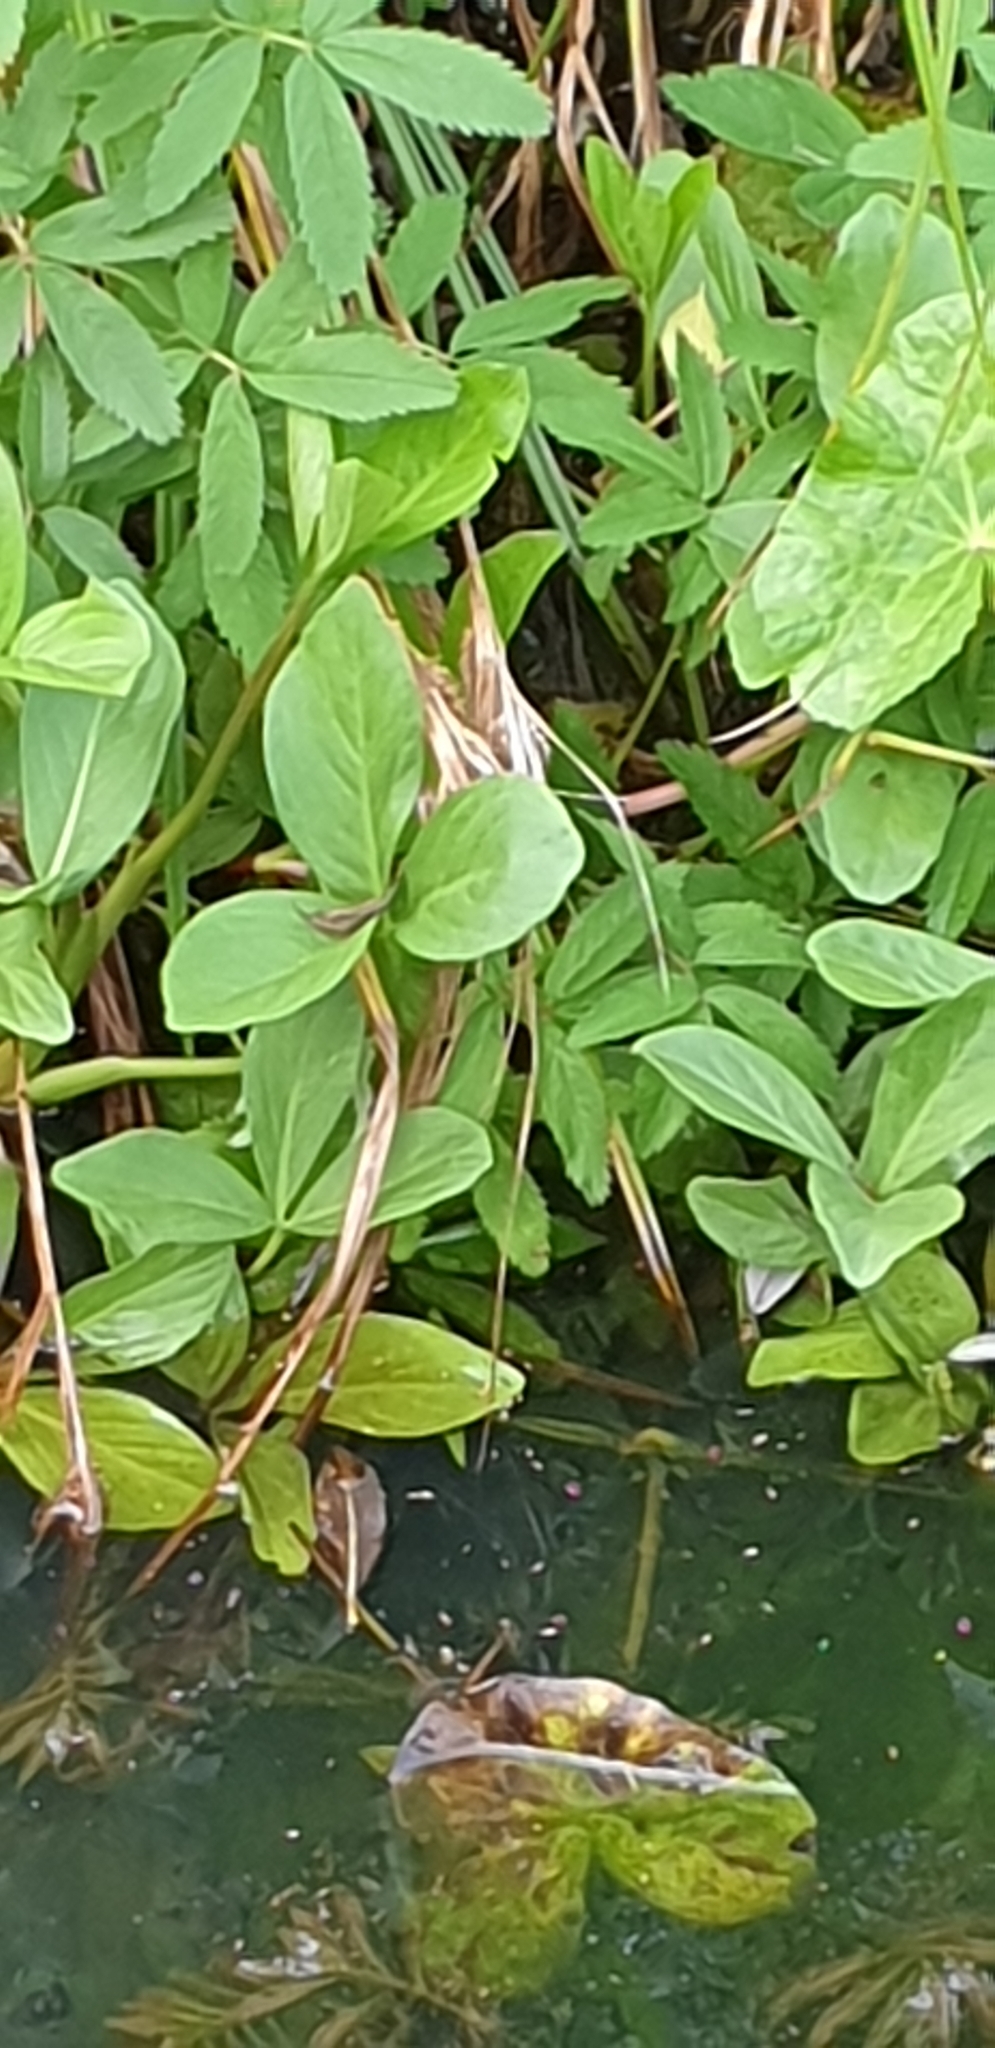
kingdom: Plantae
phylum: Tracheophyta
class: Magnoliopsida
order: Asterales
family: Menyanthaceae
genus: Menyanthes
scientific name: Menyanthes trifoliata
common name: Bogbean
